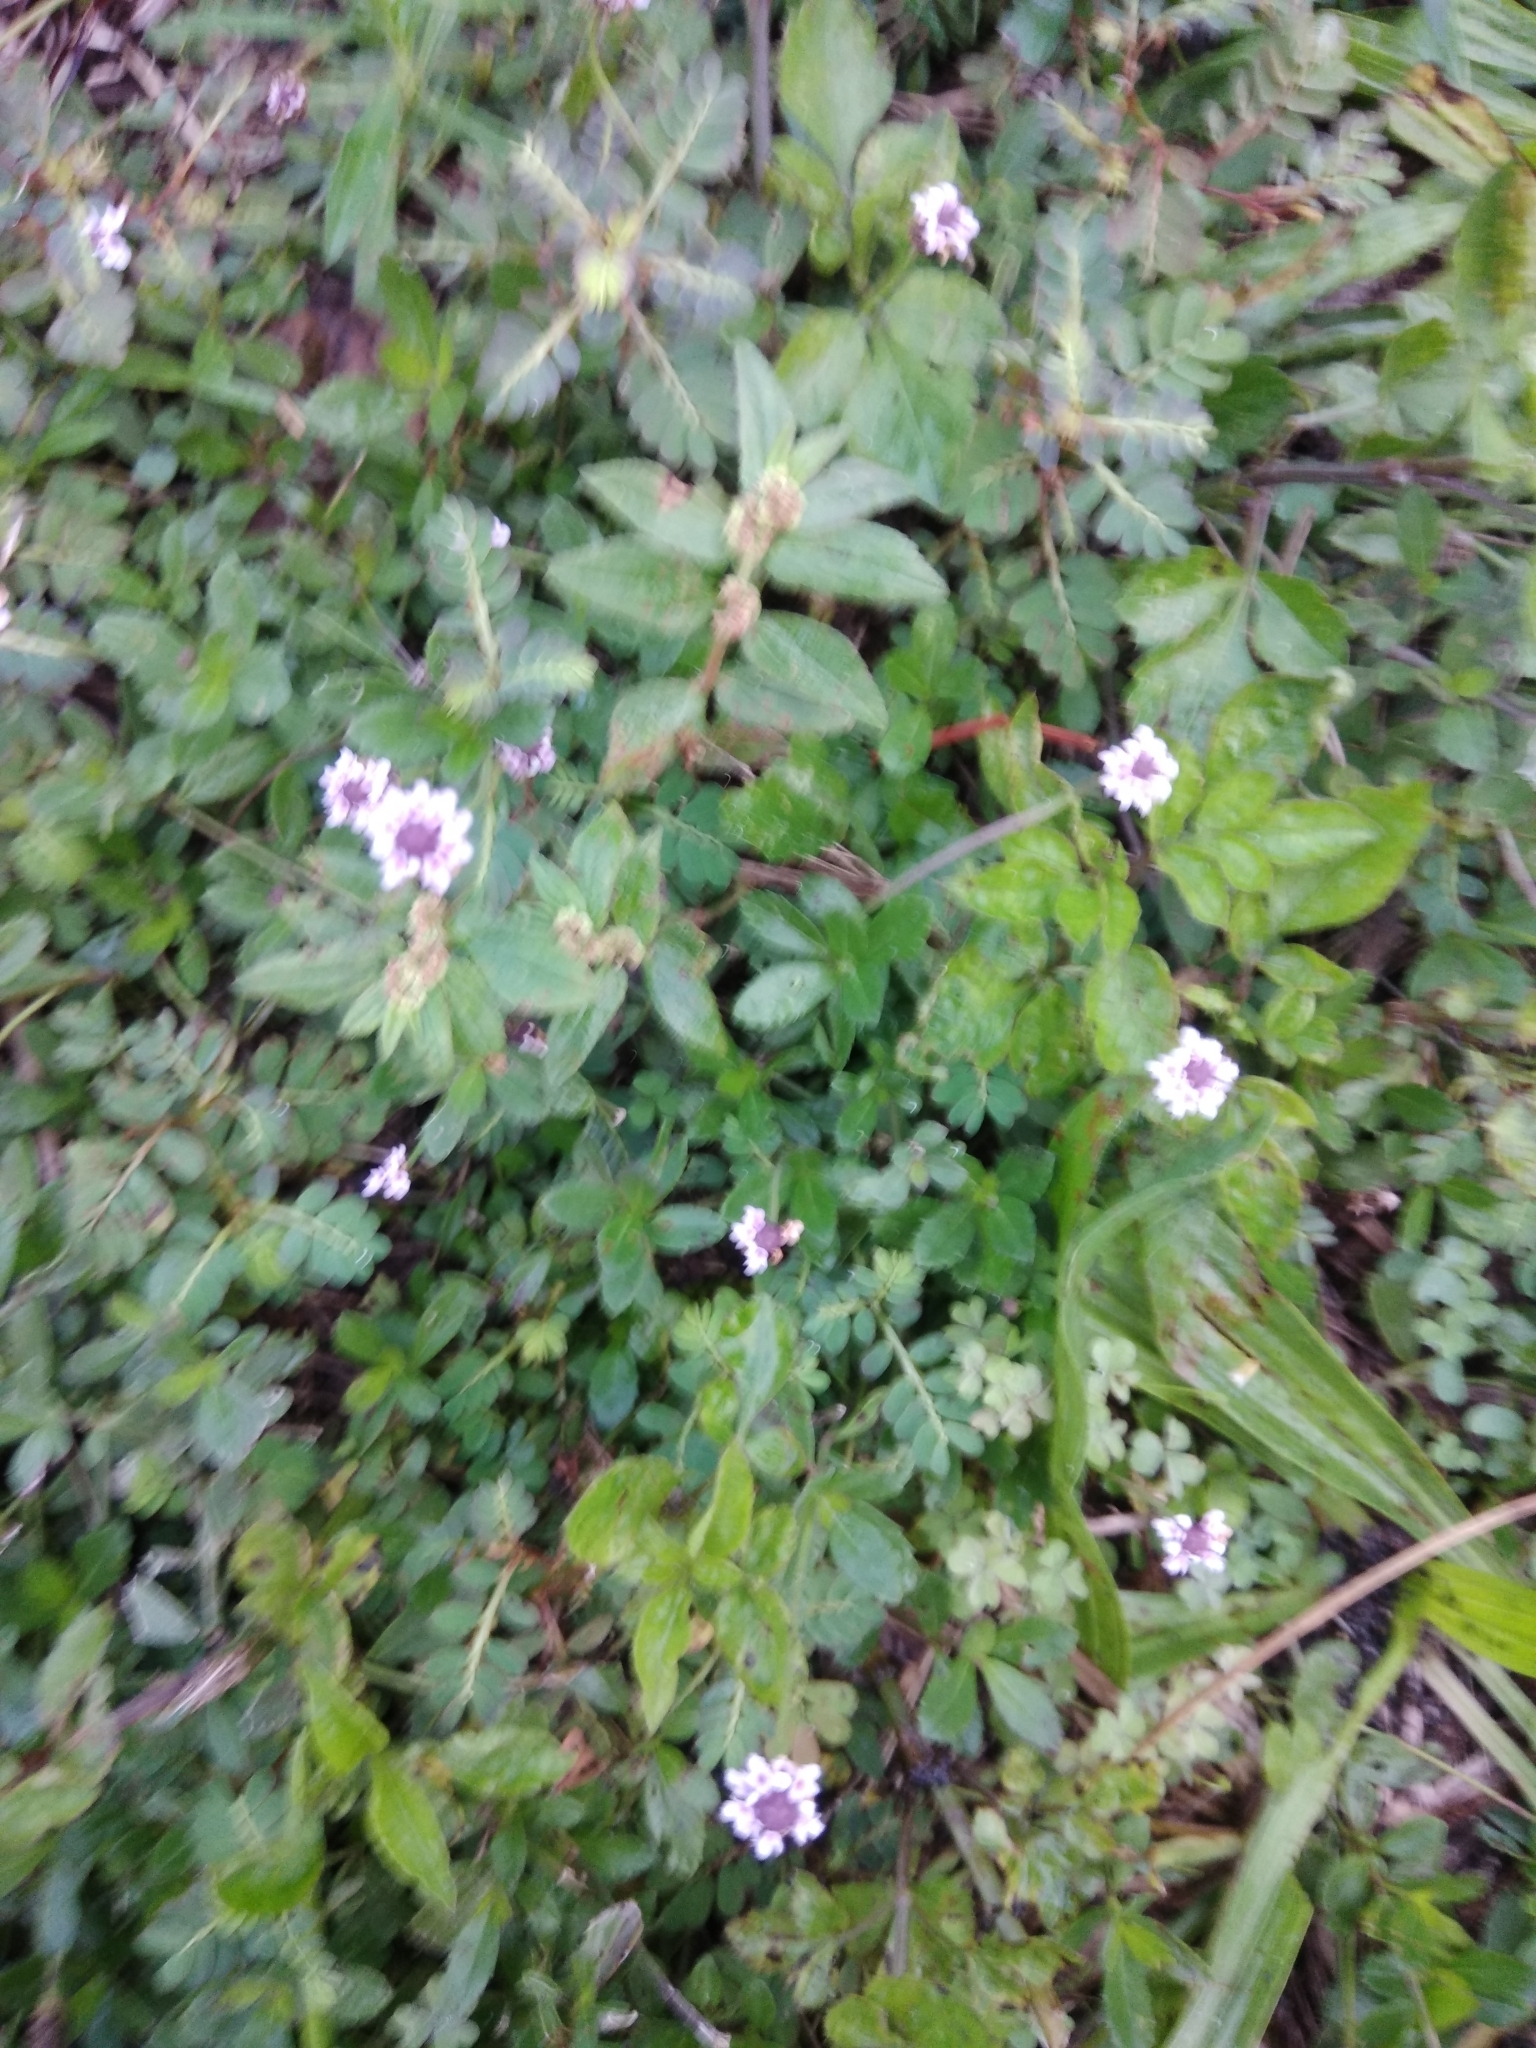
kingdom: Plantae
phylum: Tracheophyta
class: Magnoliopsida
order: Lamiales
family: Verbenaceae
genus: Phyla
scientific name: Phyla nodiflora
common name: Frogfruit
